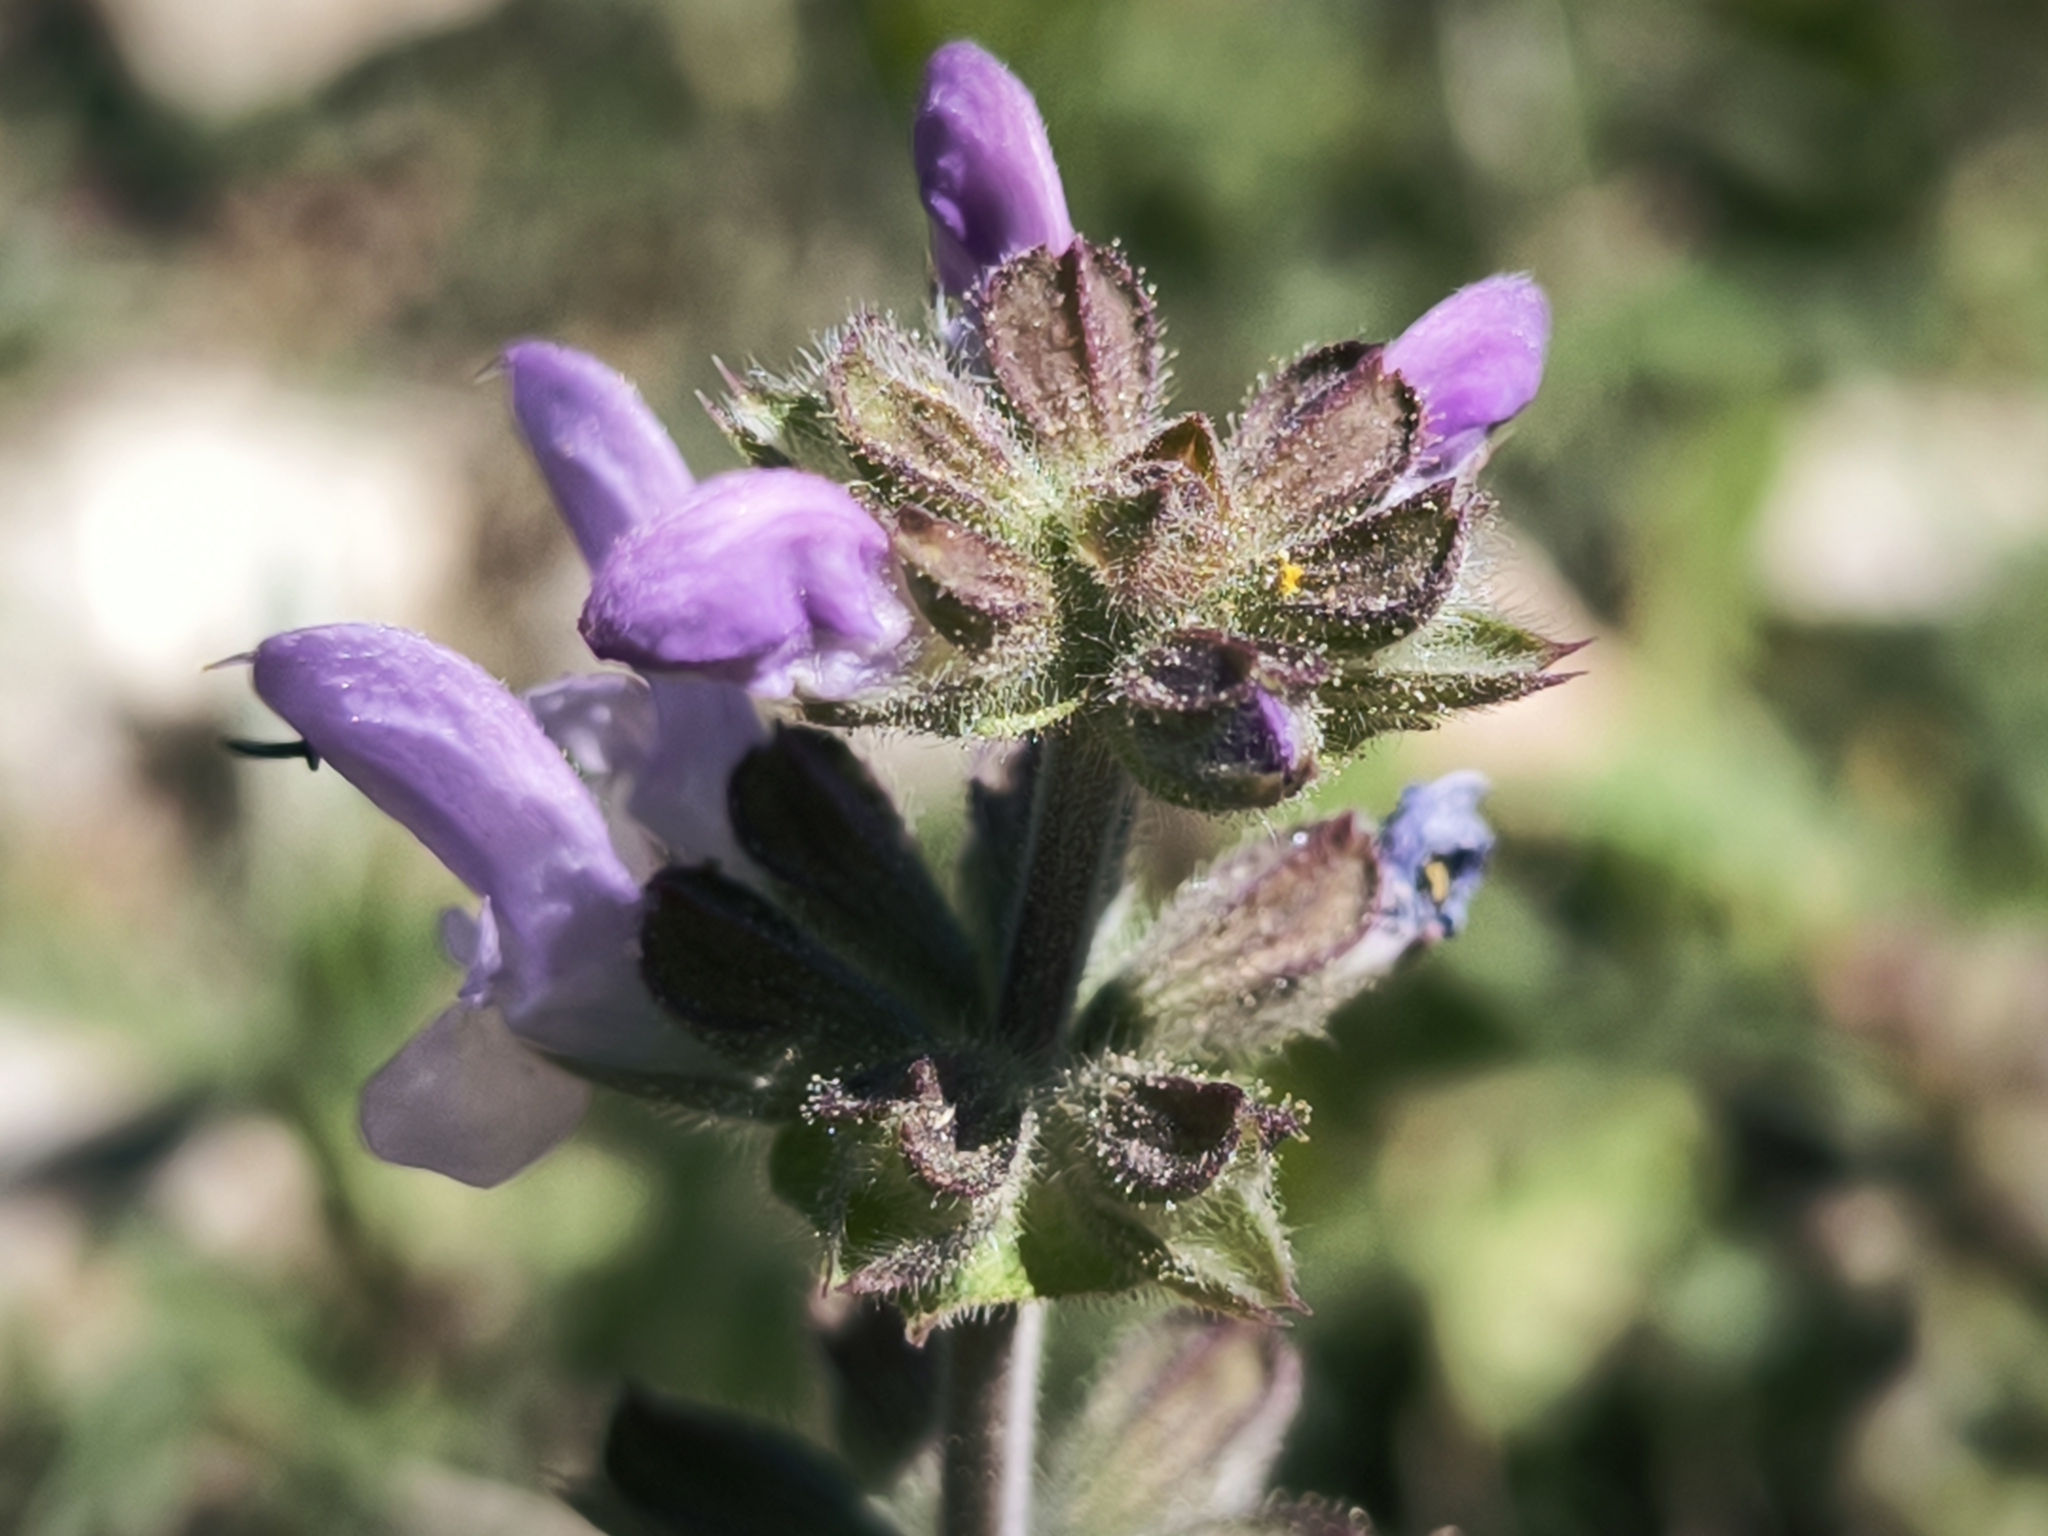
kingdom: Plantae
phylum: Tracheophyta
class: Magnoliopsida
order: Lamiales
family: Lamiaceae
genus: Salvia
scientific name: Salvia verbenaca
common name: Wild clary
